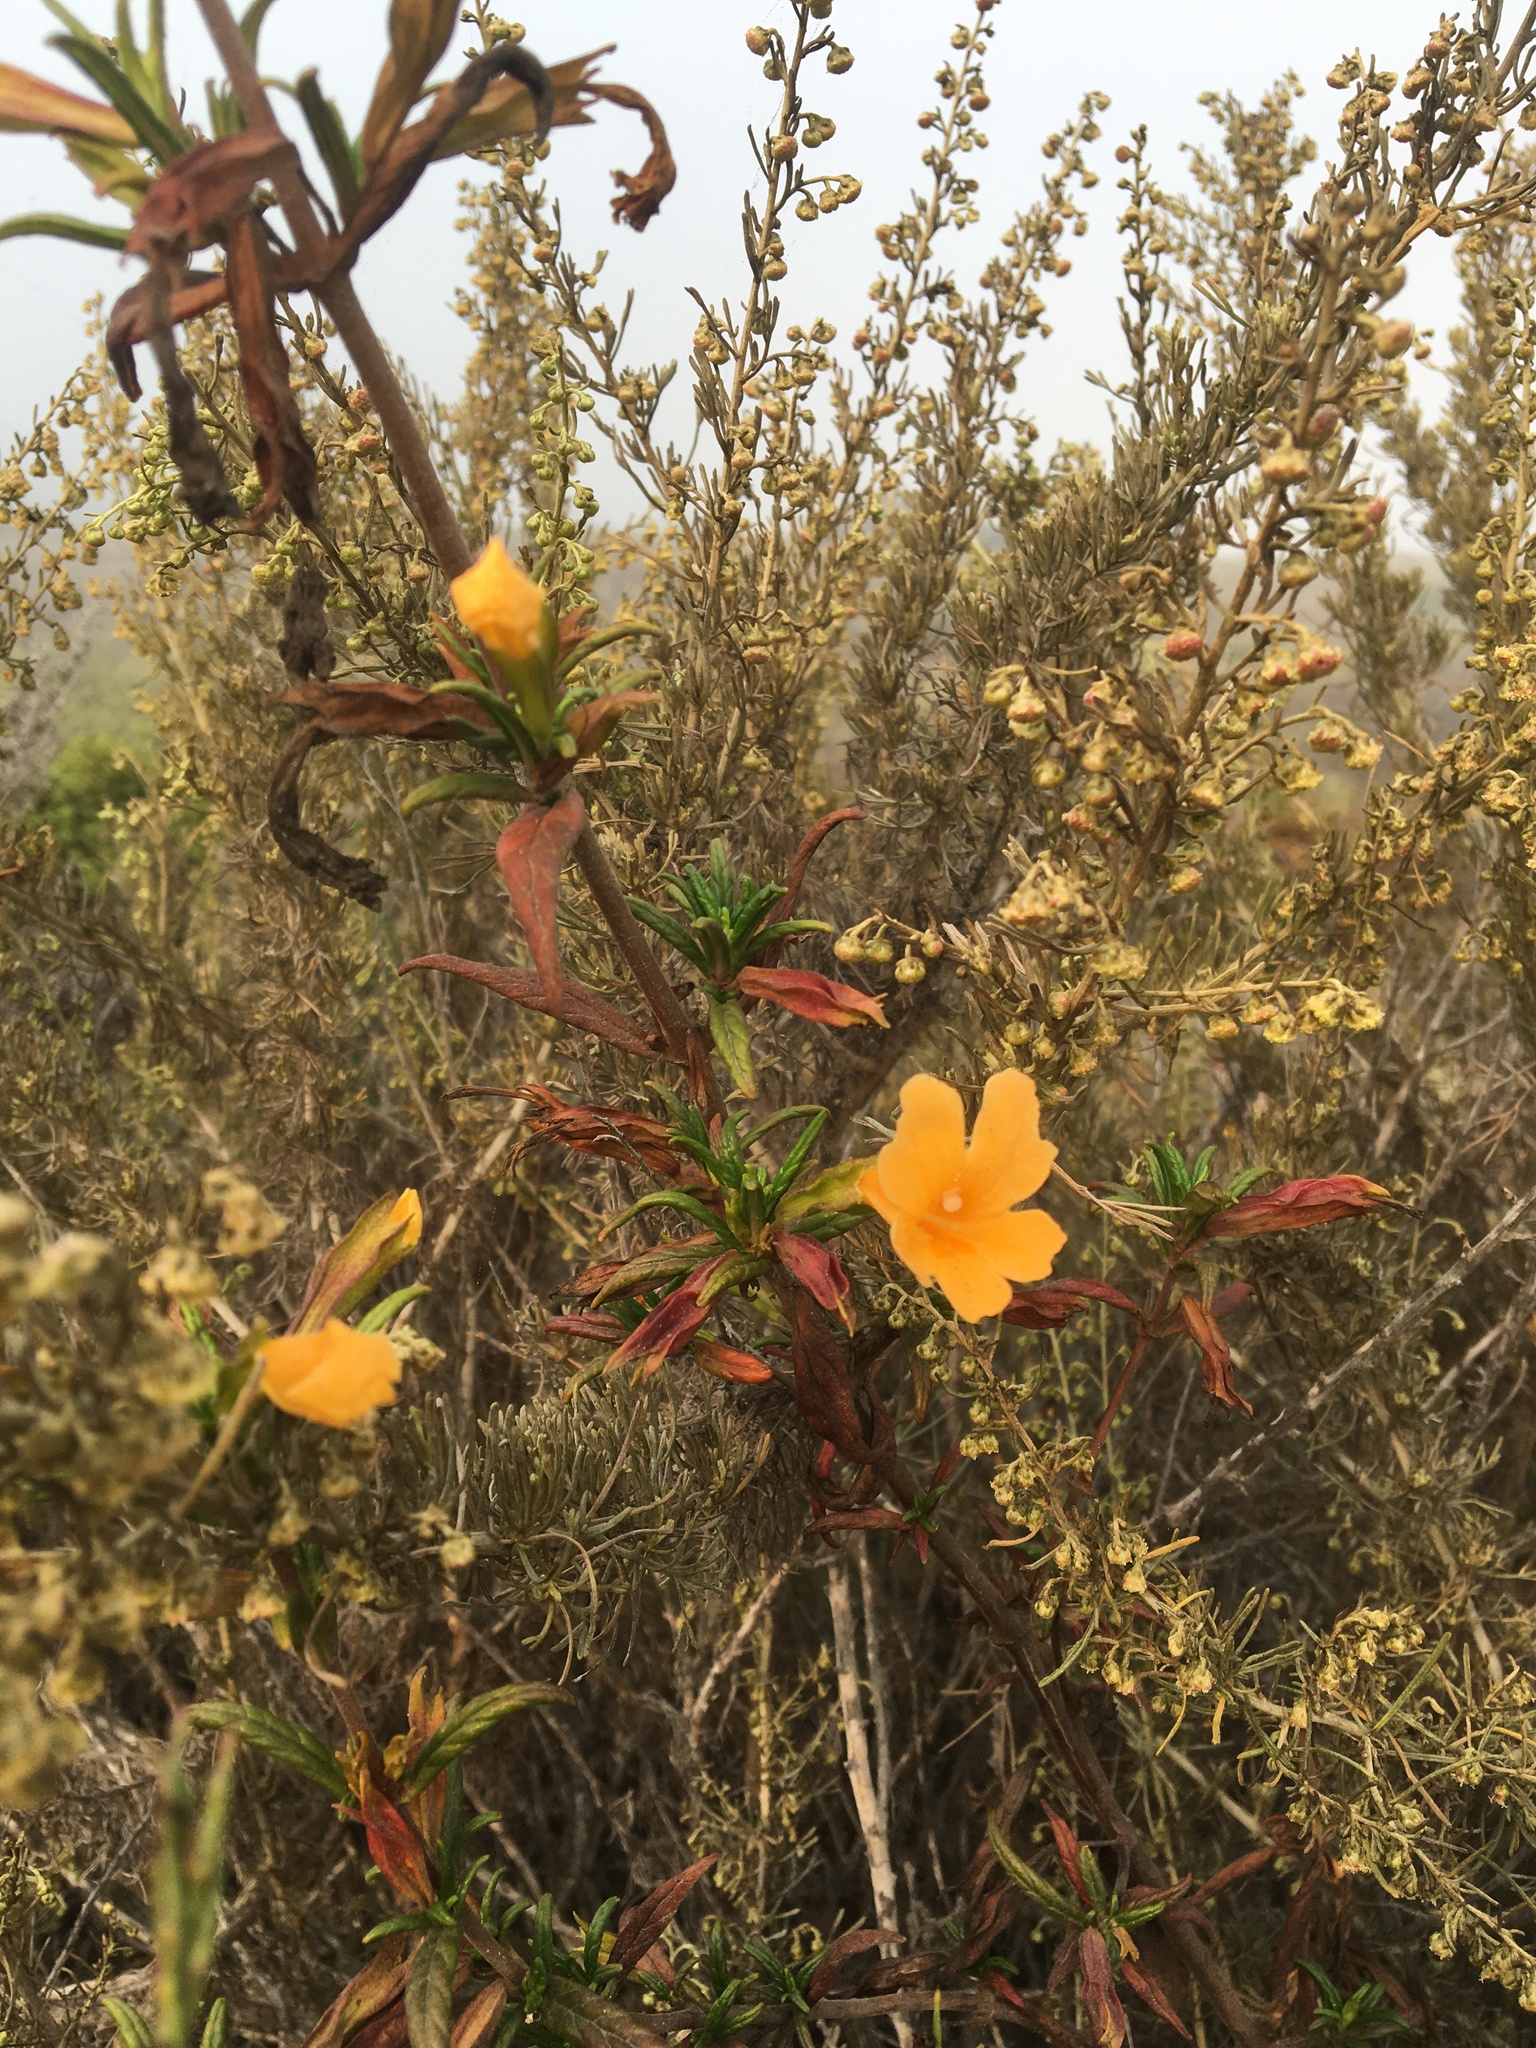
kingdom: Plantae
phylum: Tracheophyta
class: Magnoliopsida
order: Lamiales
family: Phrymaceae
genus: Diplacus
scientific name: Diplacus aurantiacus
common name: Bush monkey-flower
